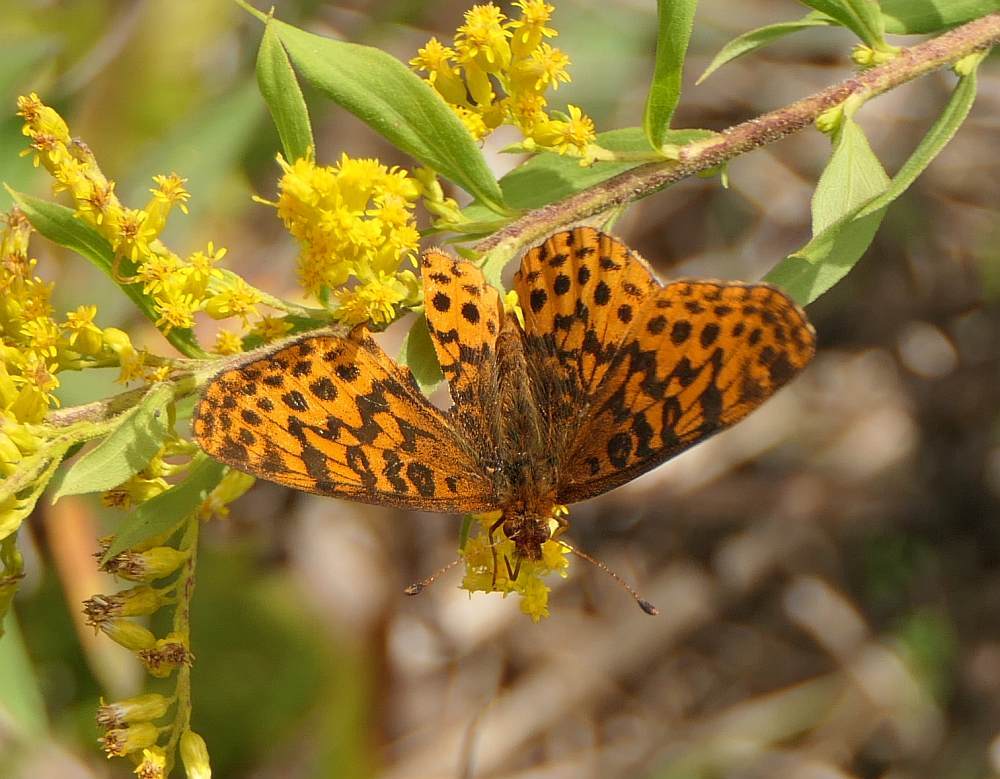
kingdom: Animalia
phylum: Arthropoda
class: Insecta
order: Lepidoptera
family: Nymphalidae
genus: Clossiana
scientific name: Clossiana toddi
